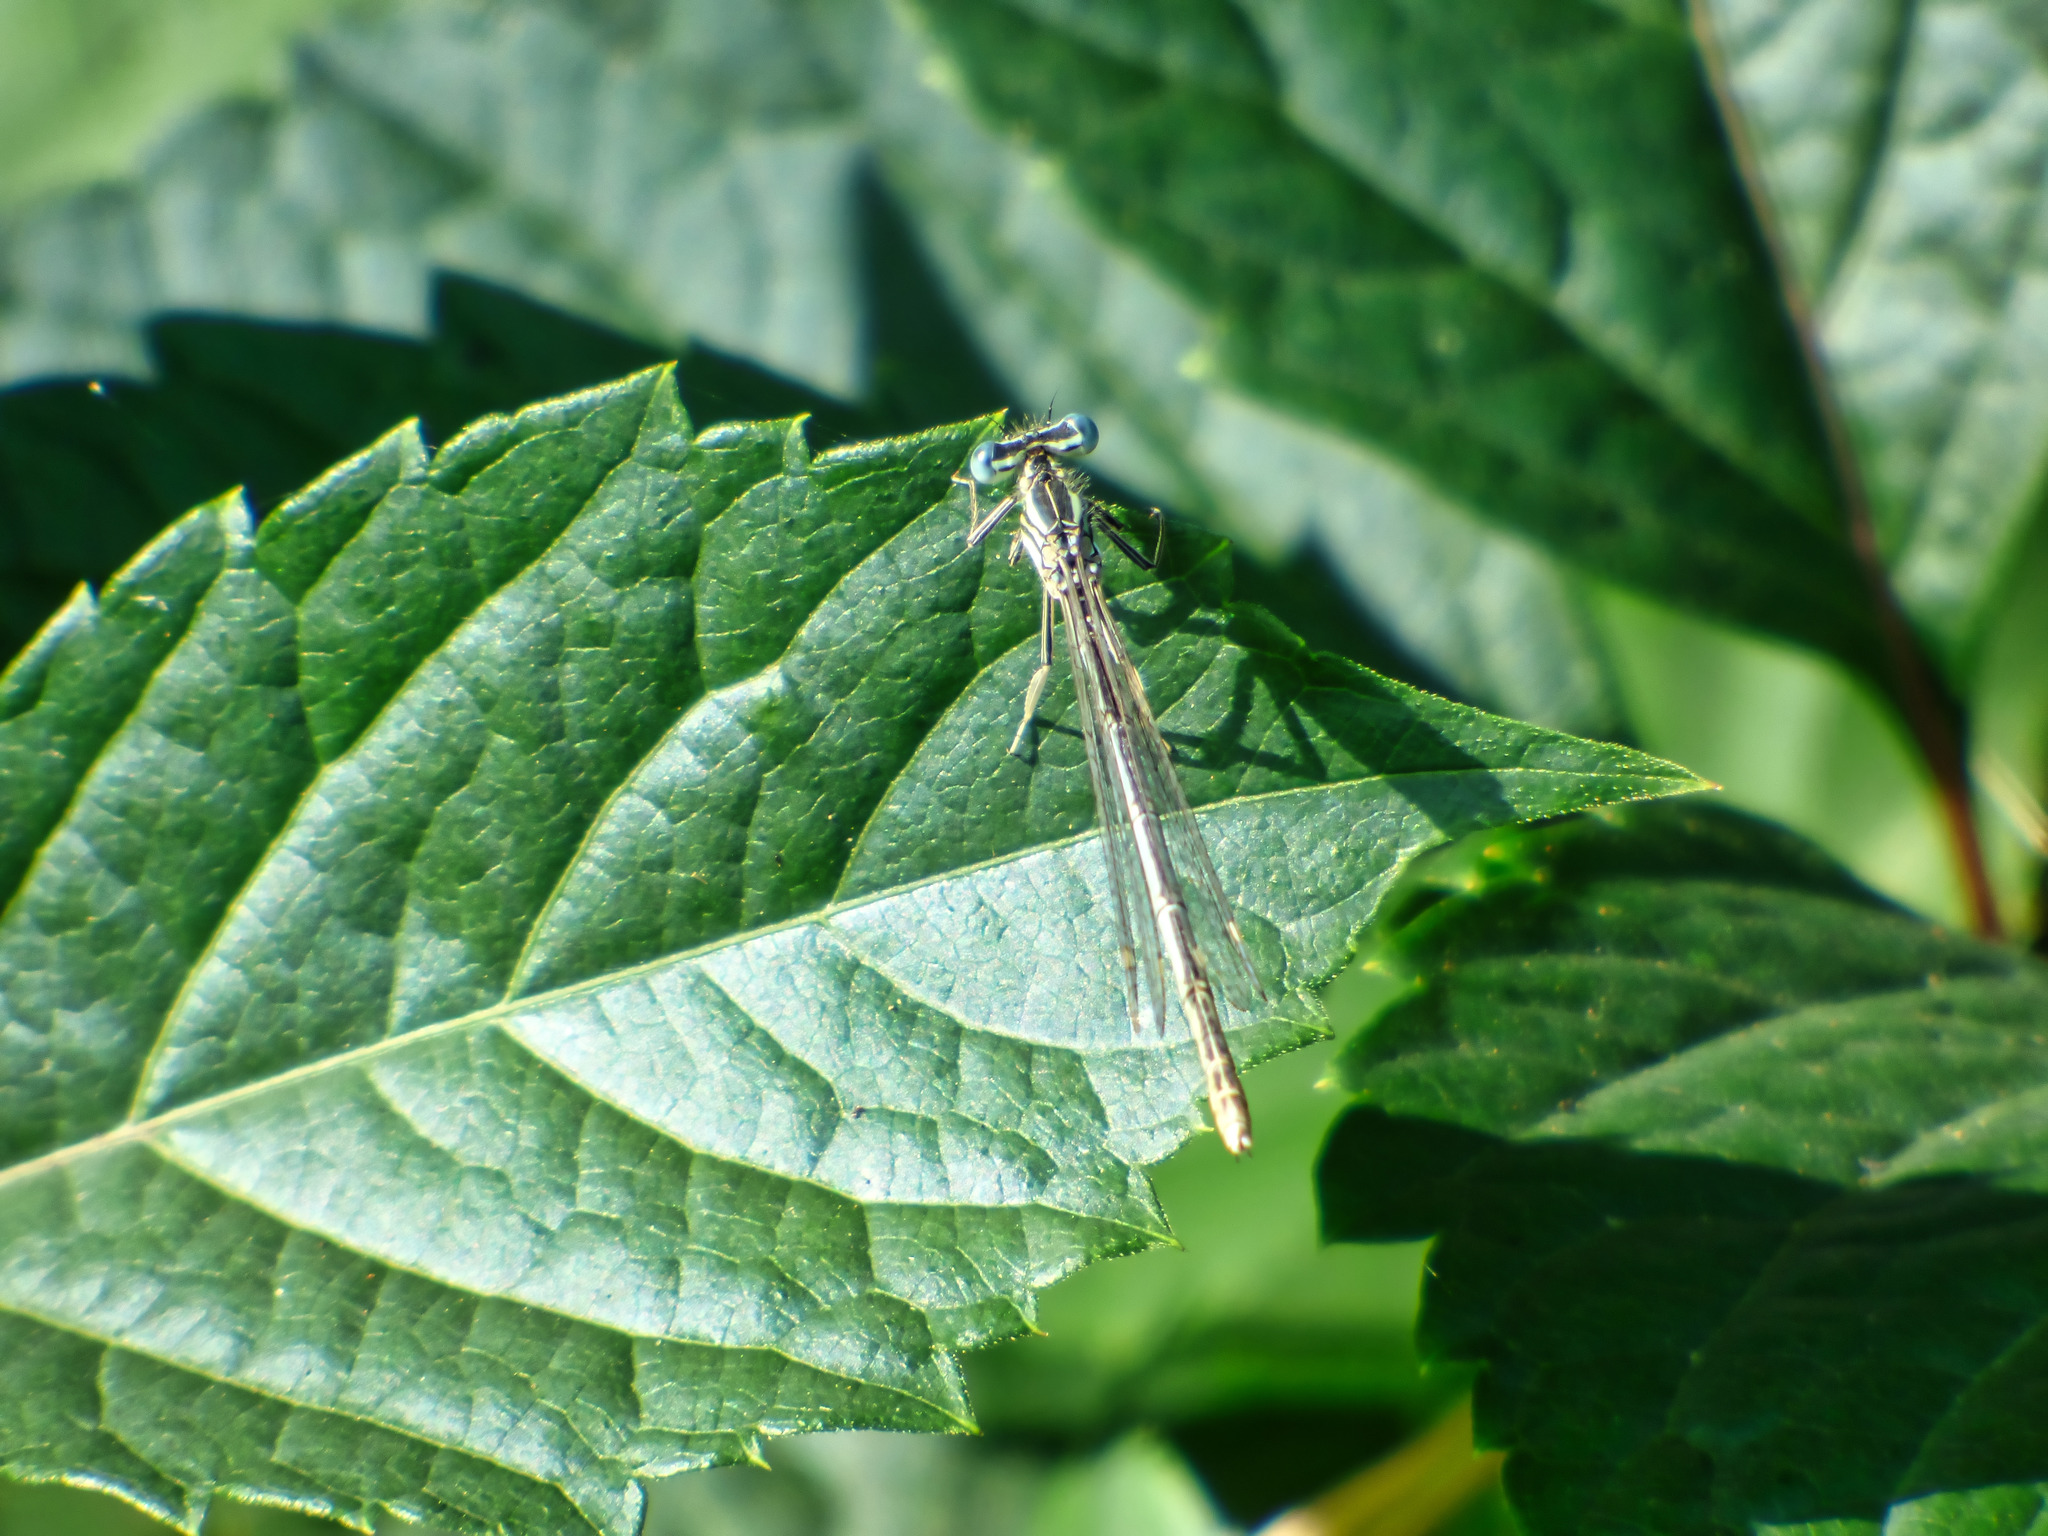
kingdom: Animalia
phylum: Arthropoda
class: Insecta
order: Odonata
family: Platycnemididae
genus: Platycnemis
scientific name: Platycnemis pennipes
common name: White-legged damselfly
